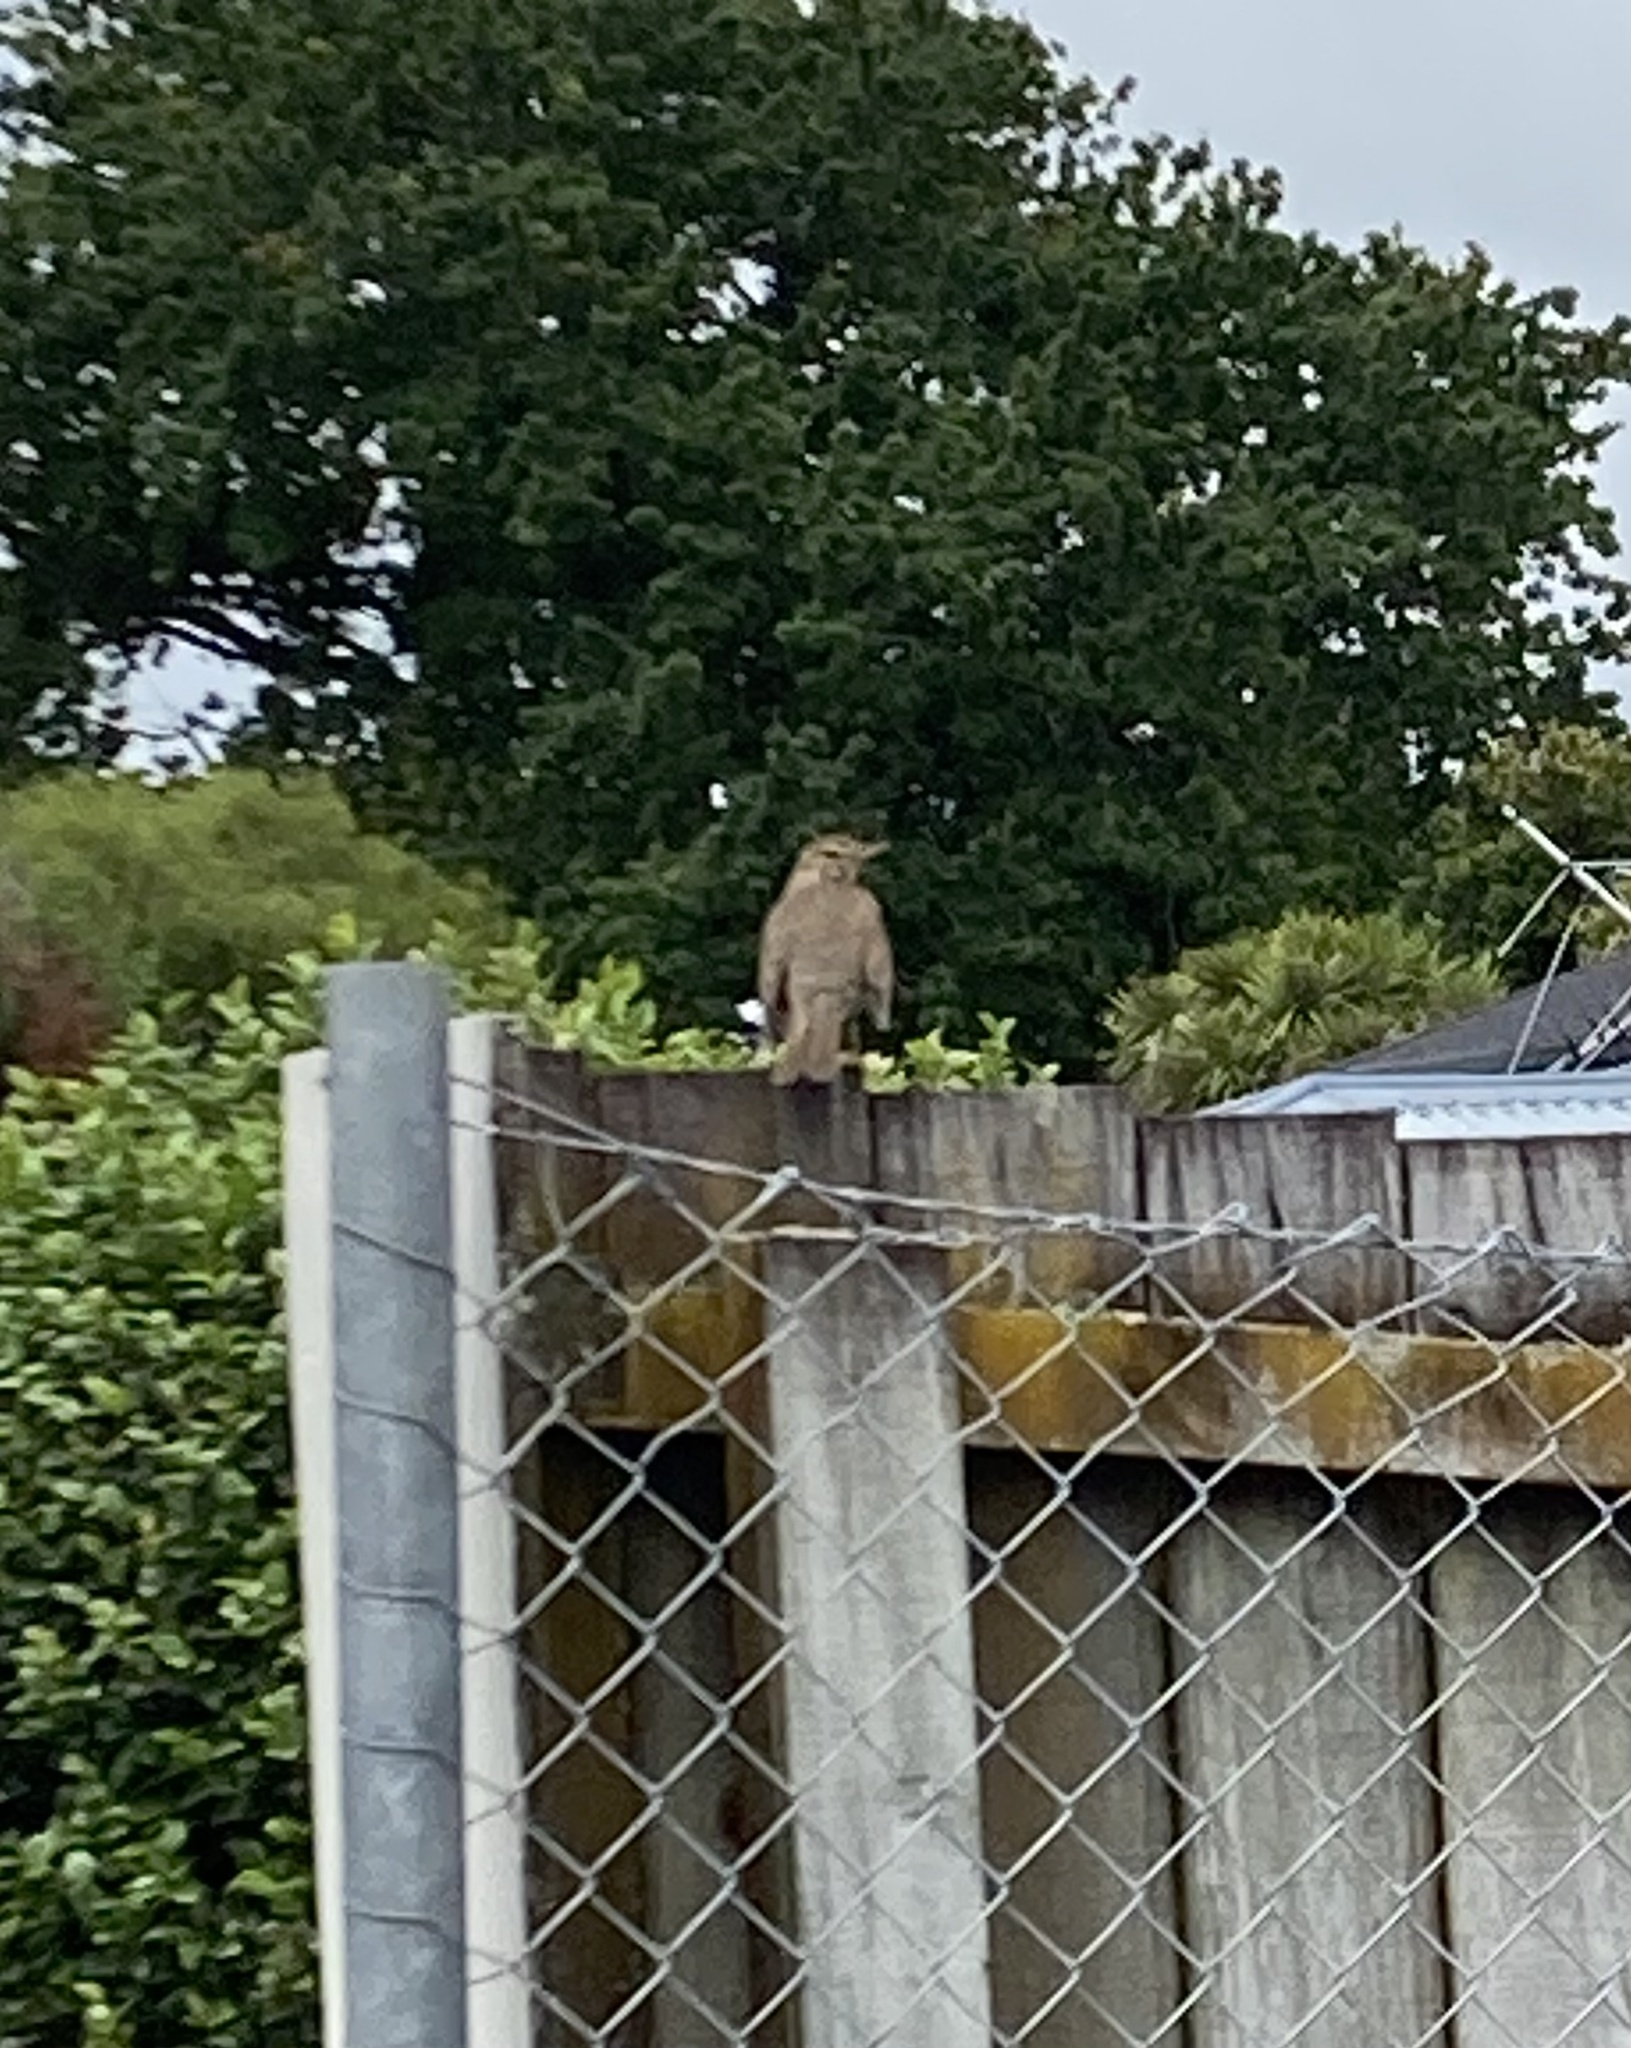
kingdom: Animalia
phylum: Chordata
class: Aves
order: Passeriformes
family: Turdidae
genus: Turdus
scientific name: Turdus philomelos
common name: Song thrush
